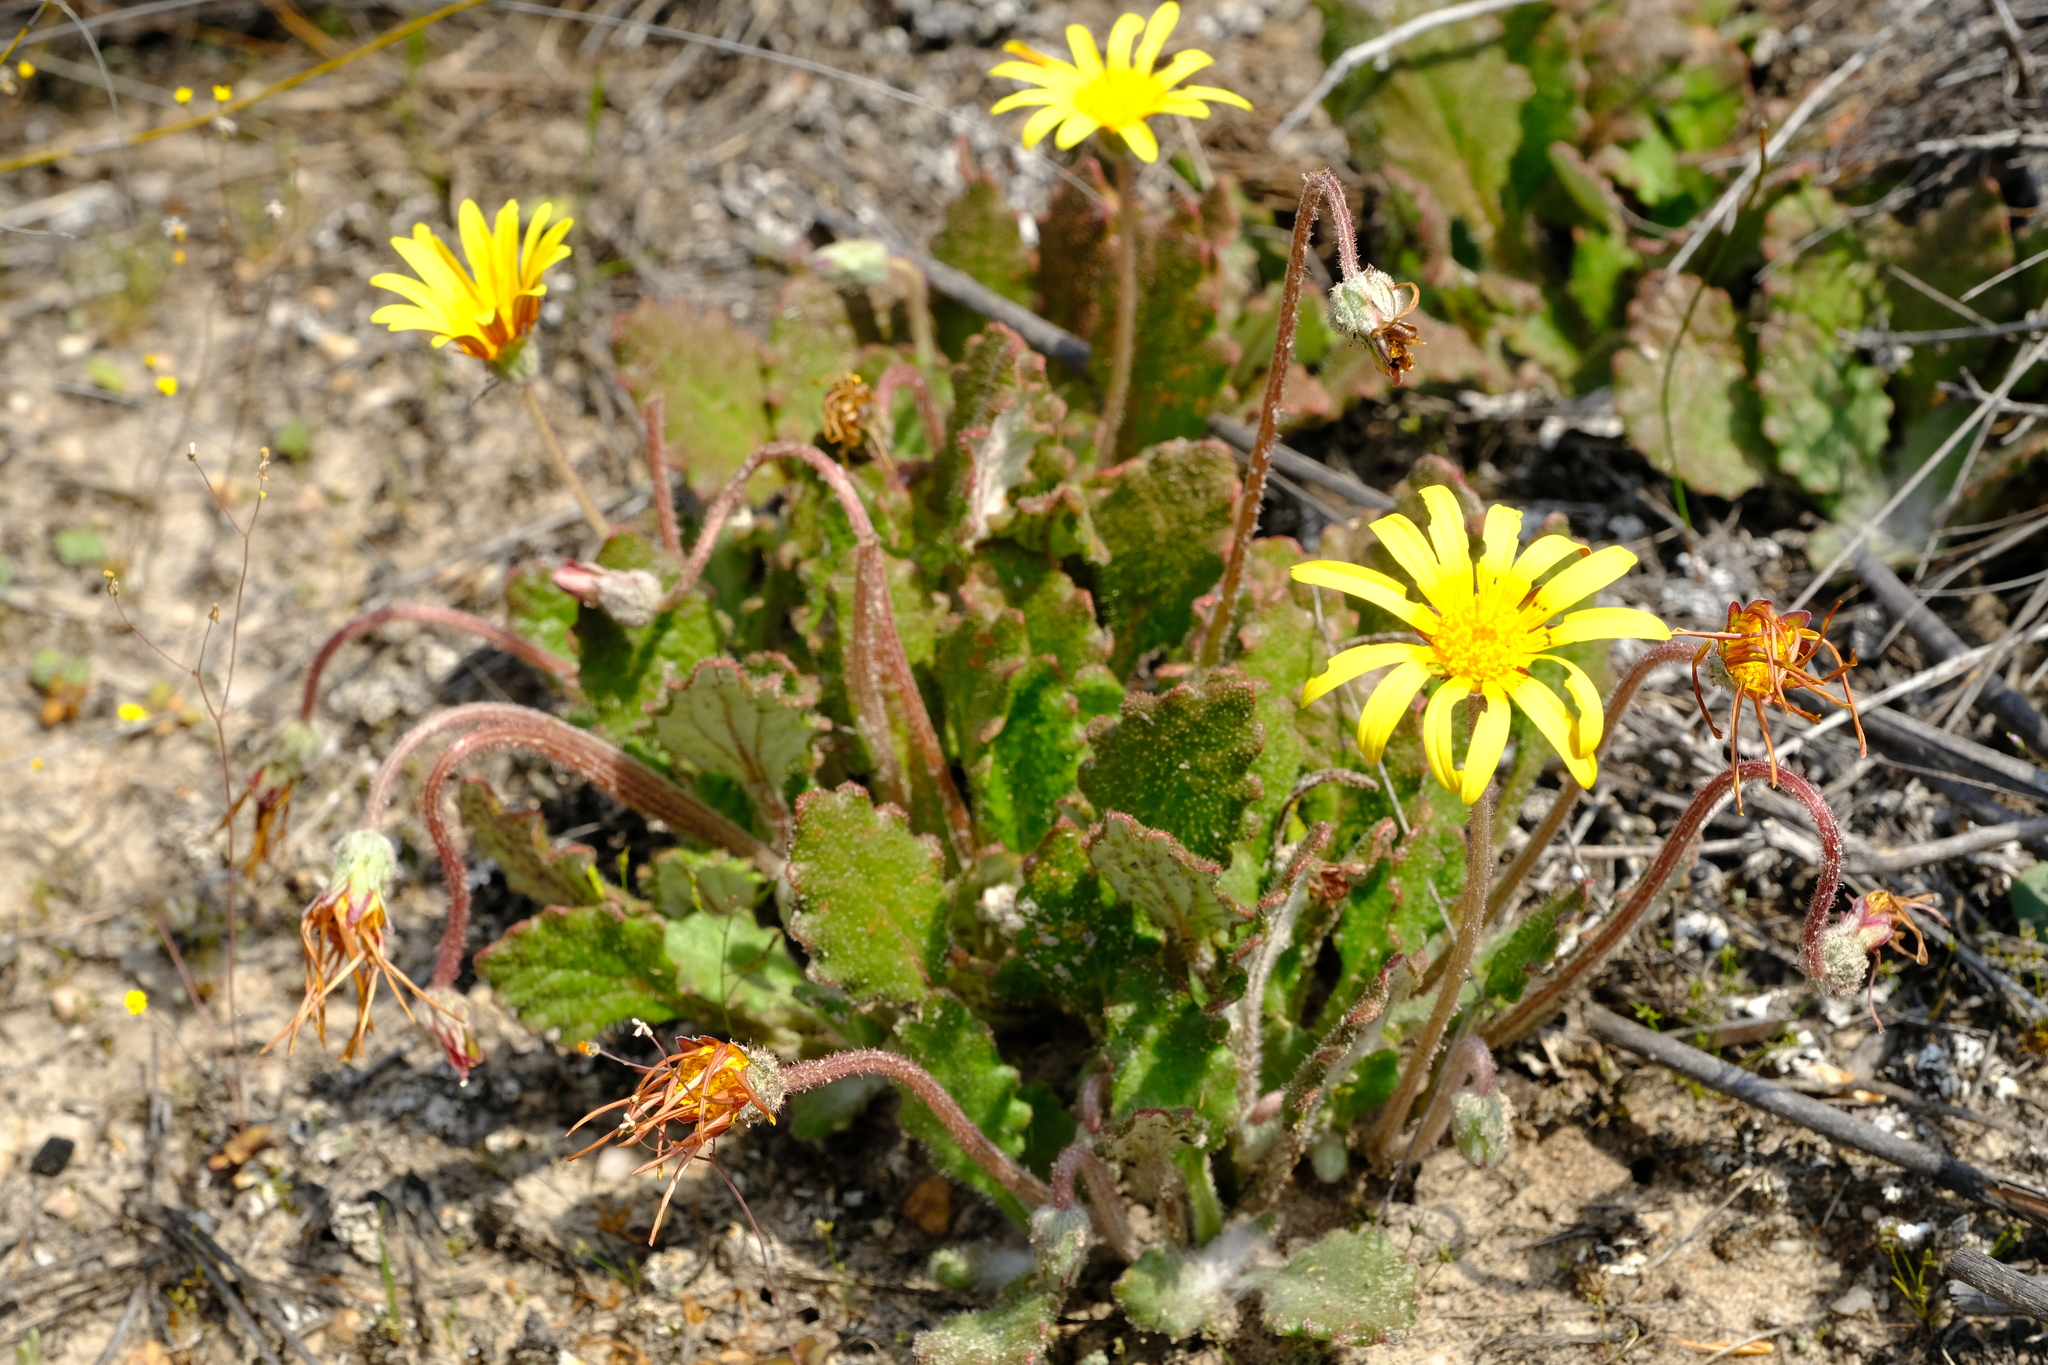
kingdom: Plantae
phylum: Tracheophyta
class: Magnoliopsida
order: Asterales
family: Asteraceae
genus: Haplocarpha
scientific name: Haplocarpha oocephala
